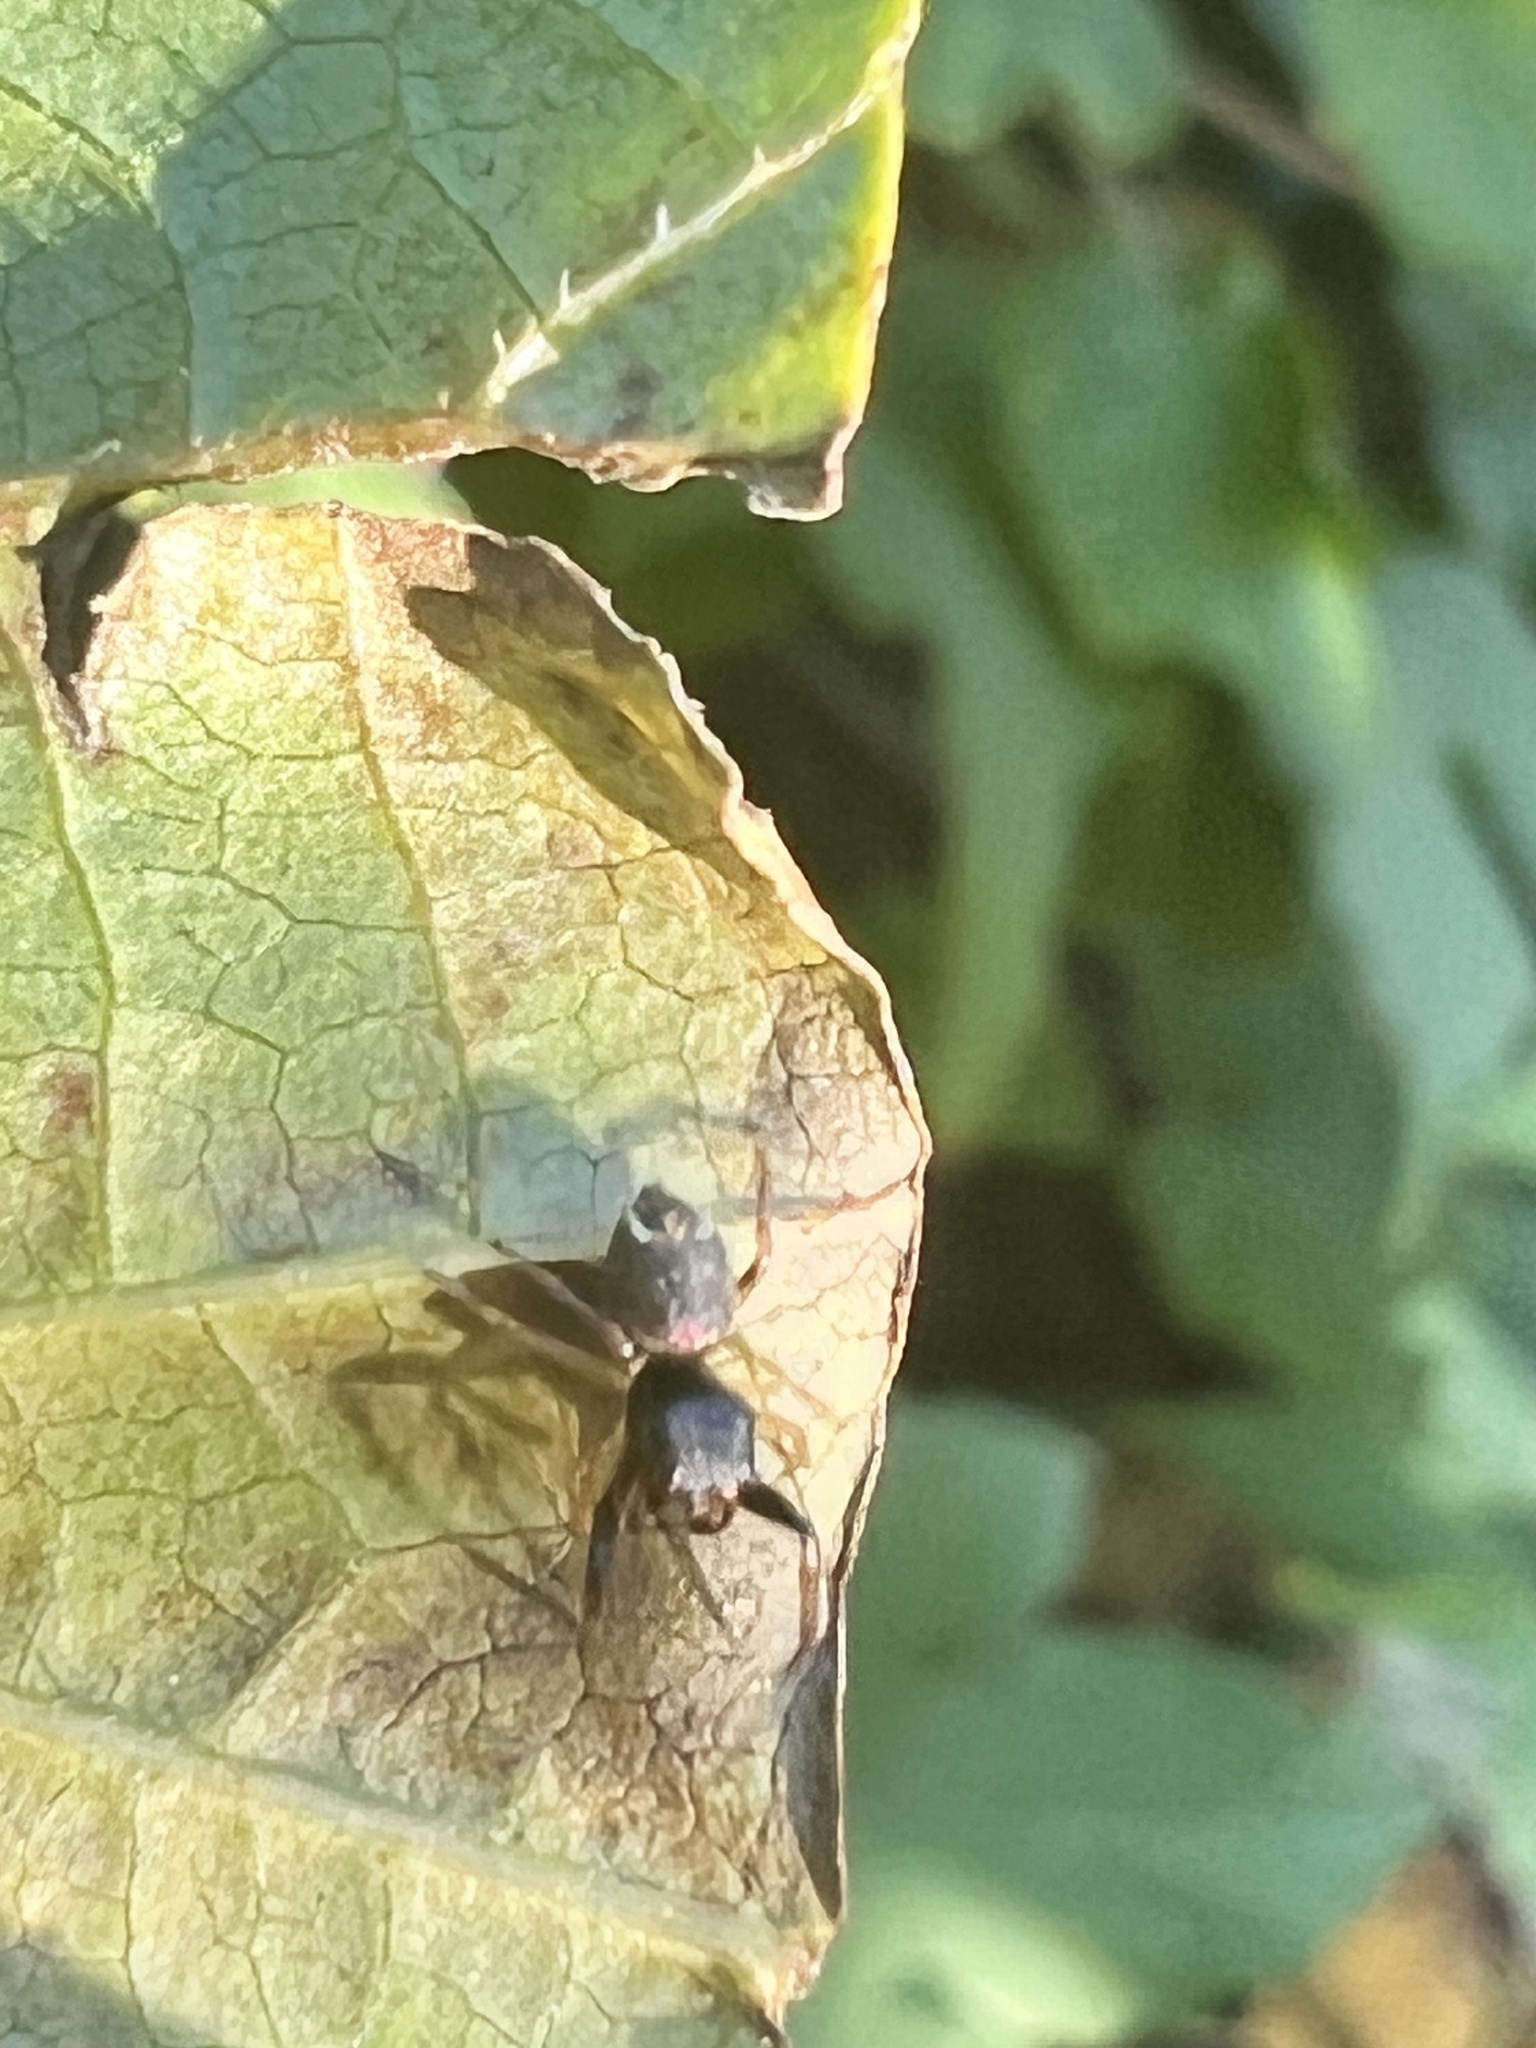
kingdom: Animalia
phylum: Arthropoda
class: Arachnida
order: Araneae
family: Salticidae
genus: Zygoballus
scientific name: Zygoballus rufipes
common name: Jumping spiders
